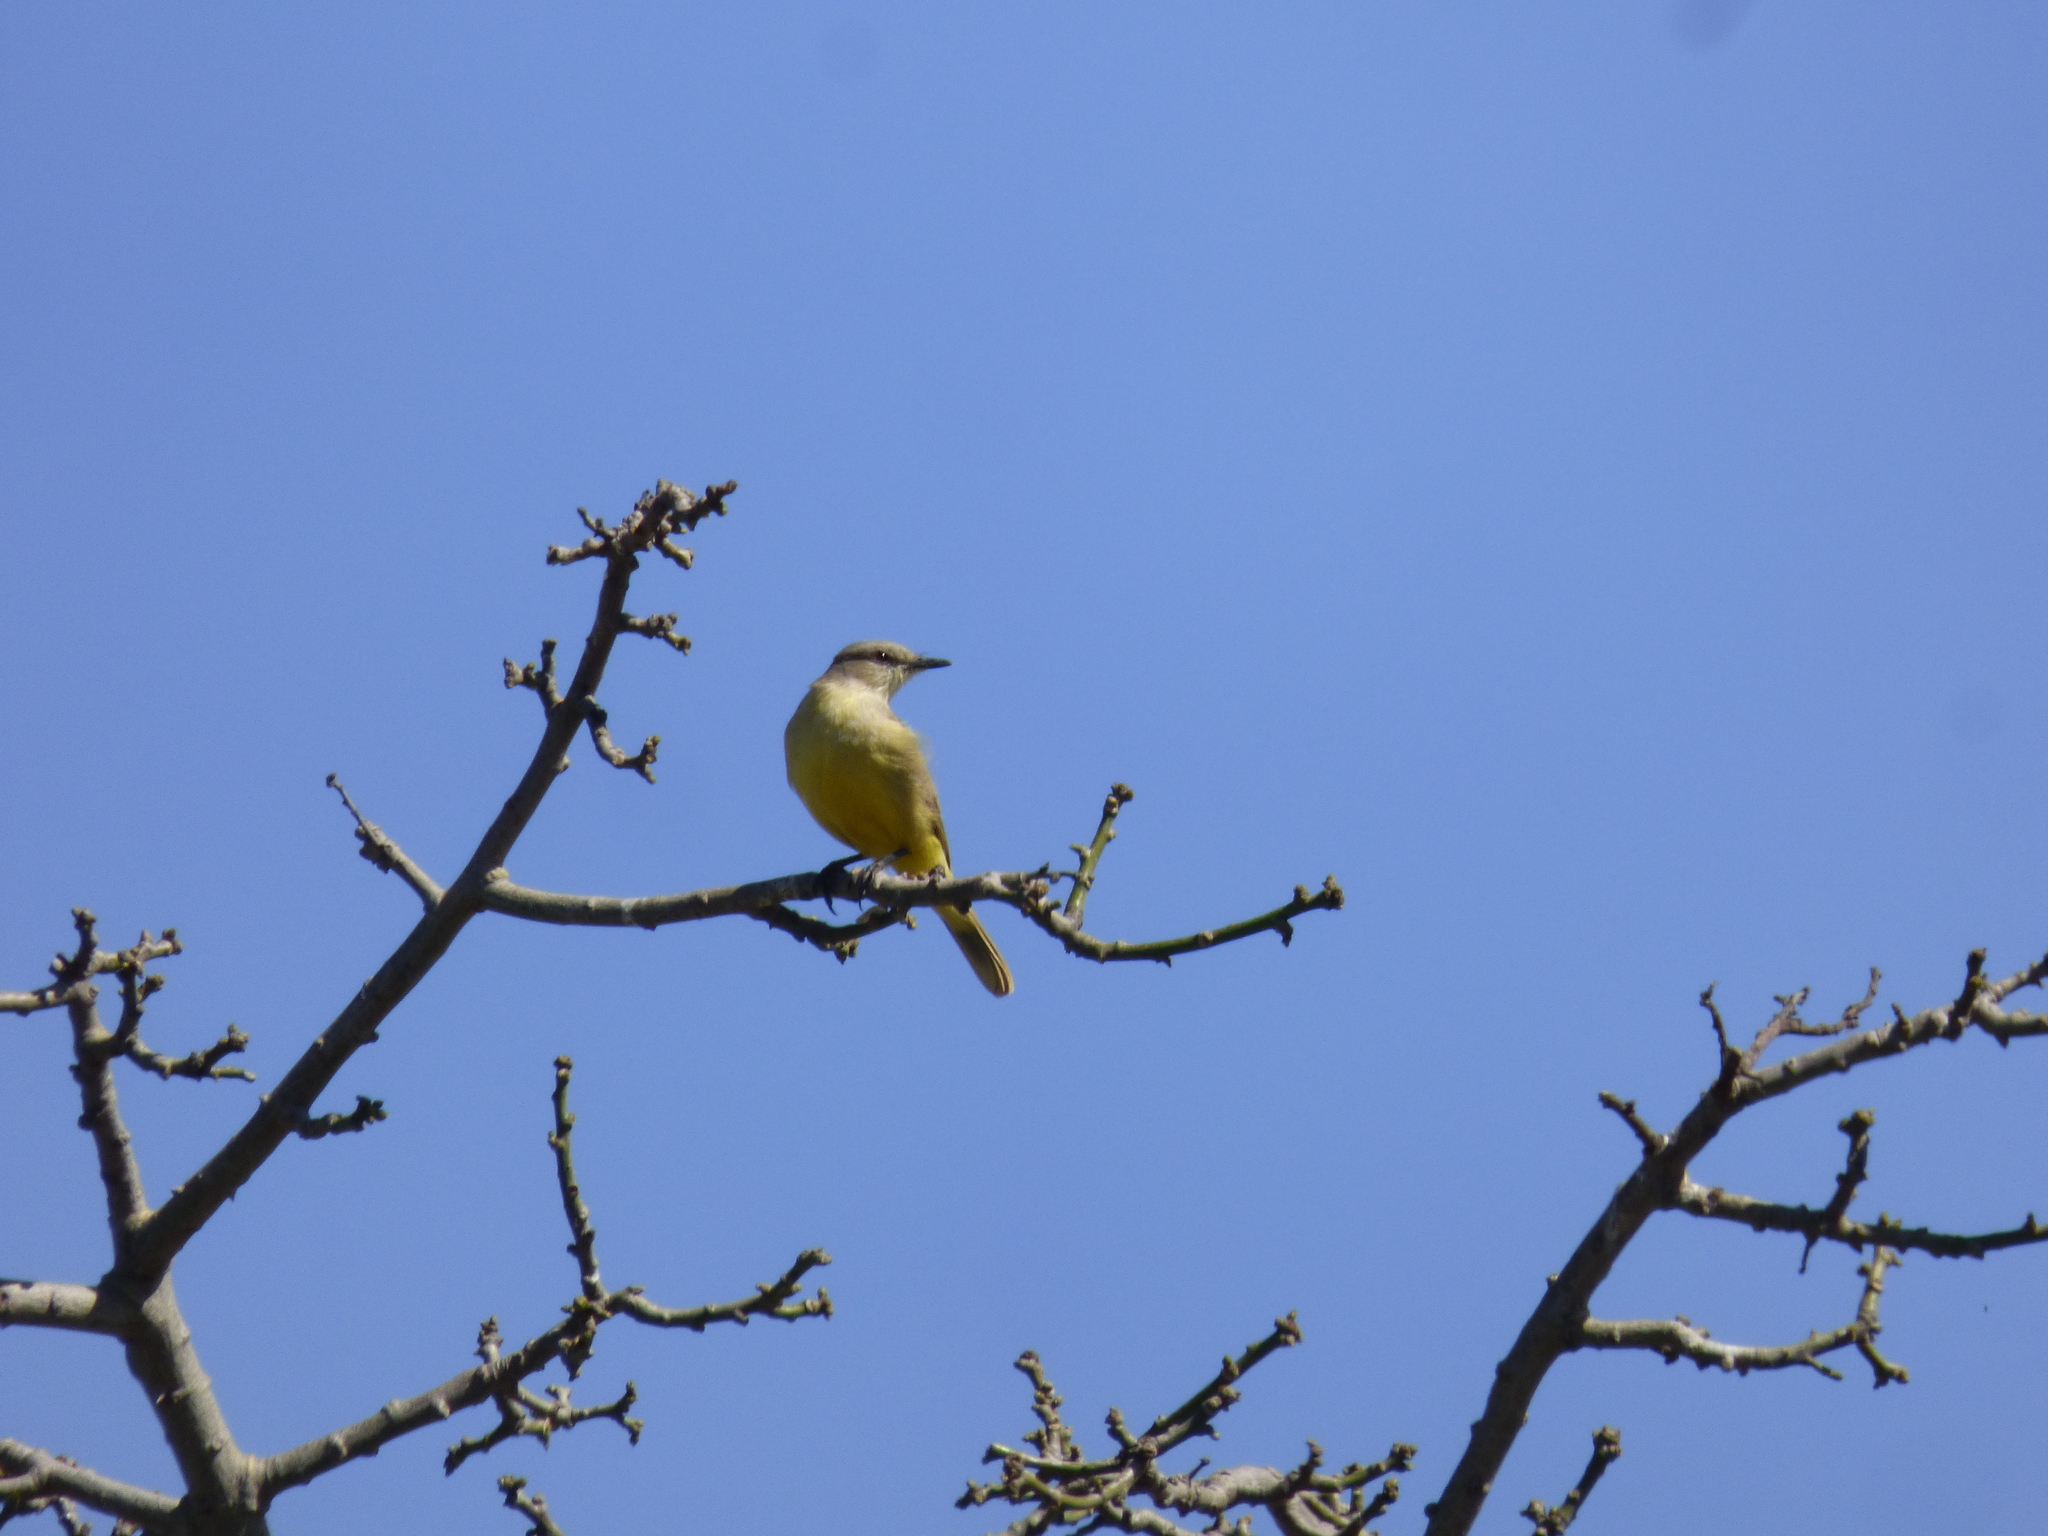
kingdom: Animalia
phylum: Chordata
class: Aves
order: Passeriformes
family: Tyrannidae
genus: Machetornis
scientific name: Machetornis rixosa
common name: Cattle tyrant
